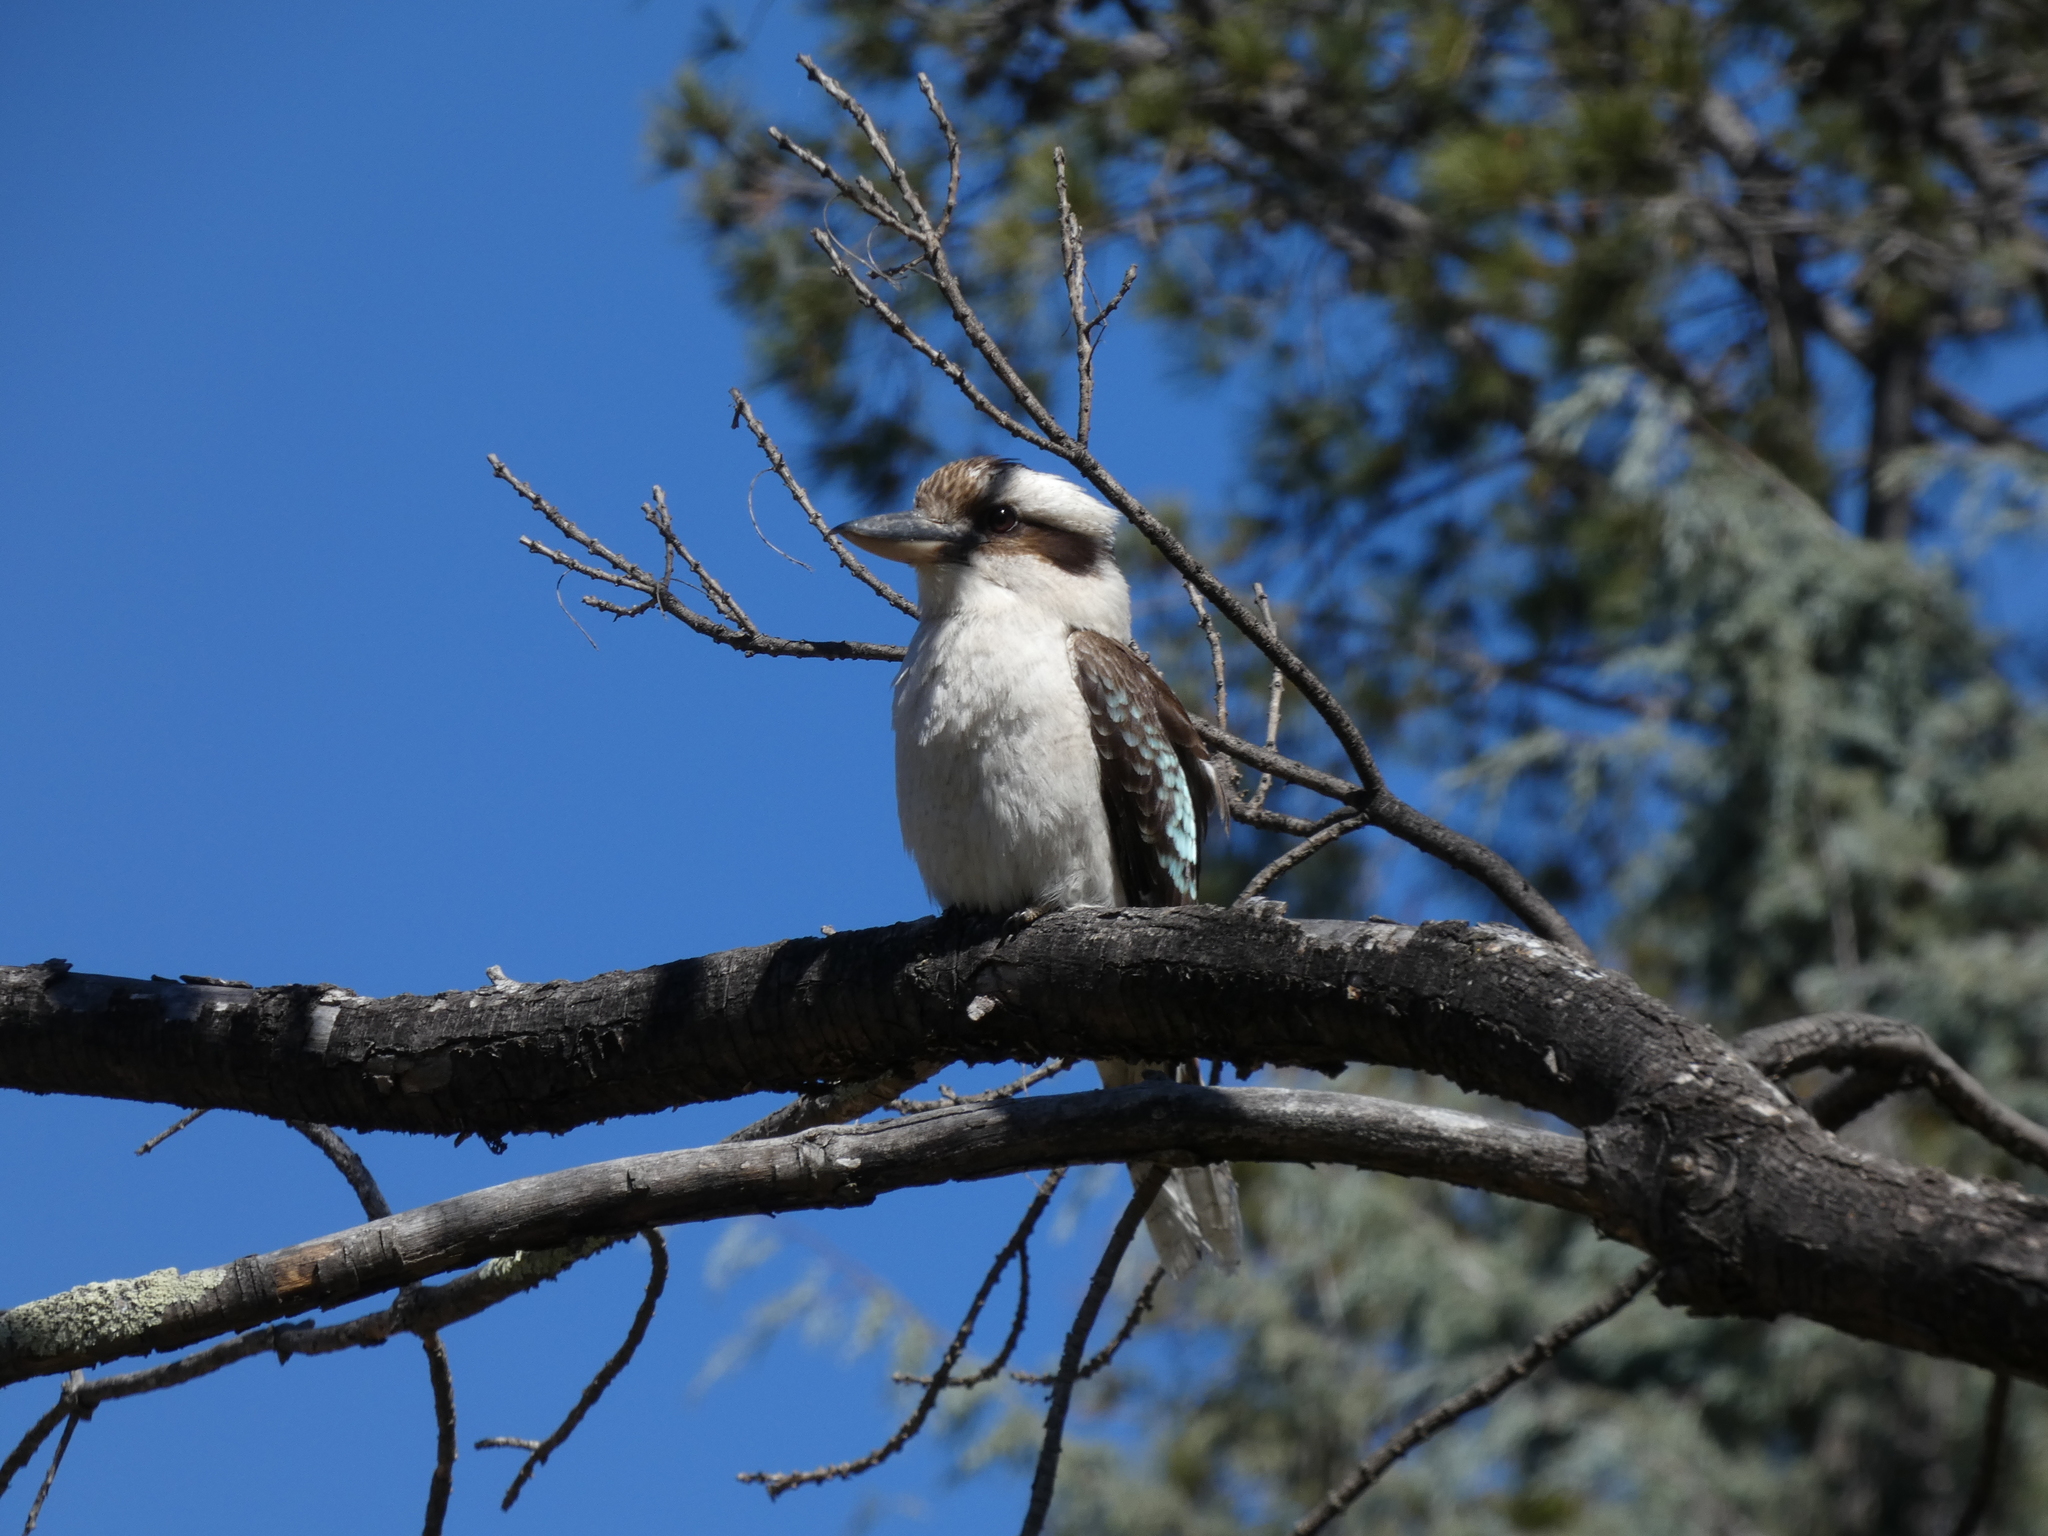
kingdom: Animalia
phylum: Chordata
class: Aves
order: Coraciiformes
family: Alcedinidae
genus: Dacelo
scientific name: Dacelo novaeguineae
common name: Laughing kookaburra
